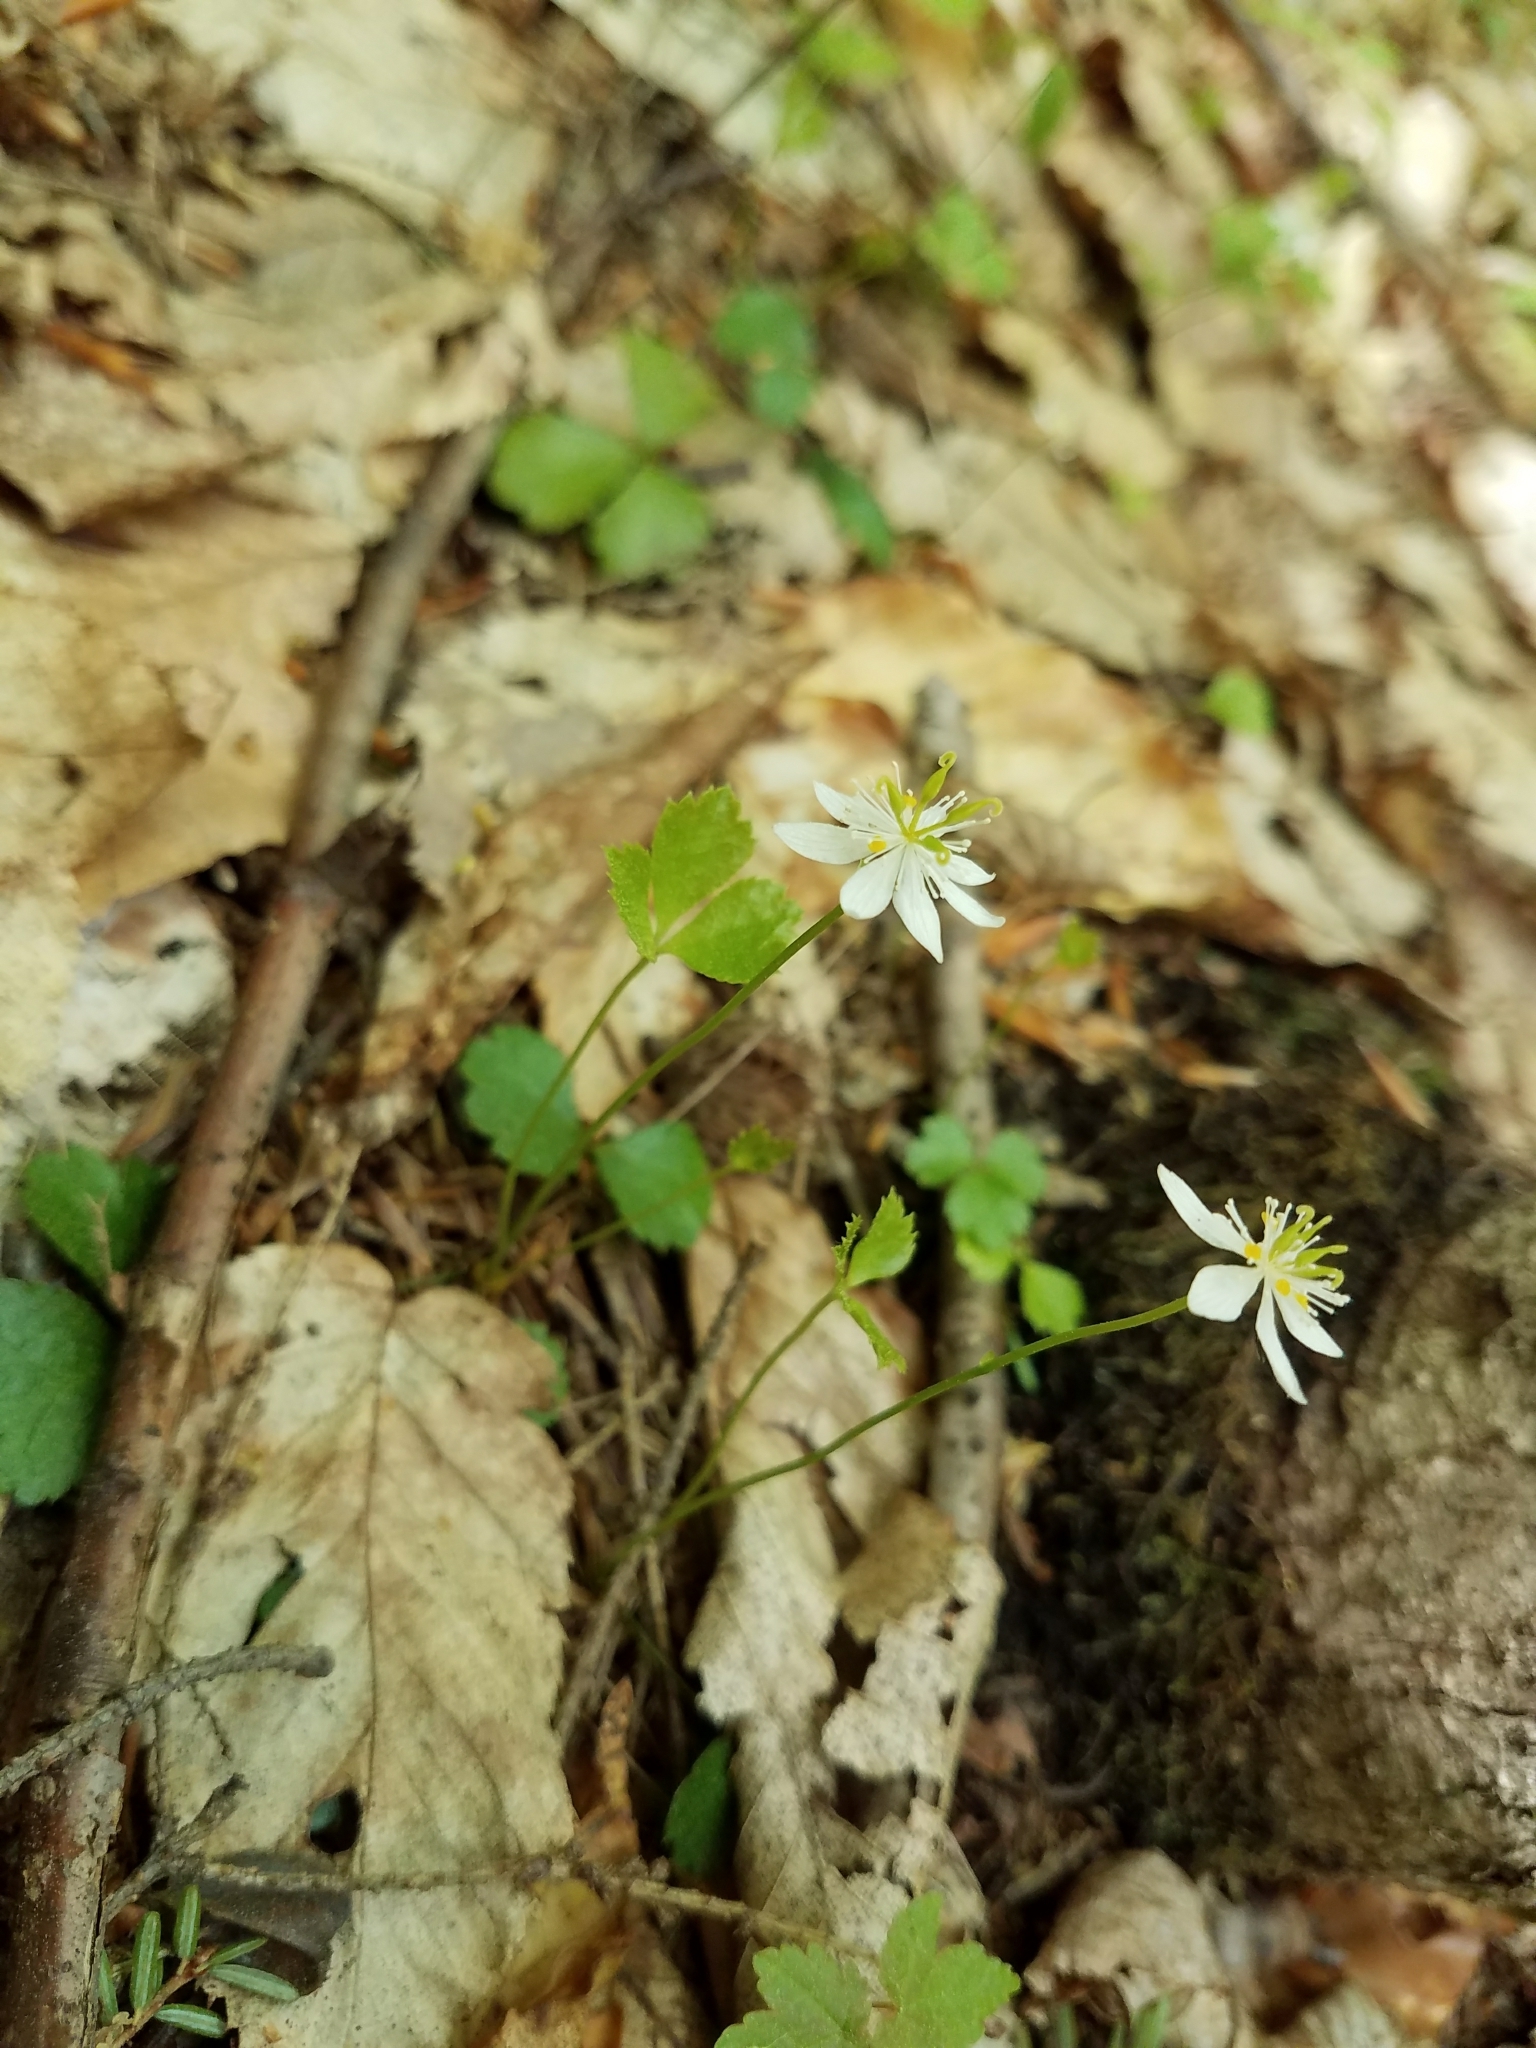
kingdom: Plantae
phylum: Tracheophyta
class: Magnoliopsida
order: Ranunculales
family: Ranunculaceae
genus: Coptis
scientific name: Coptis trifolia
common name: Canker-root
